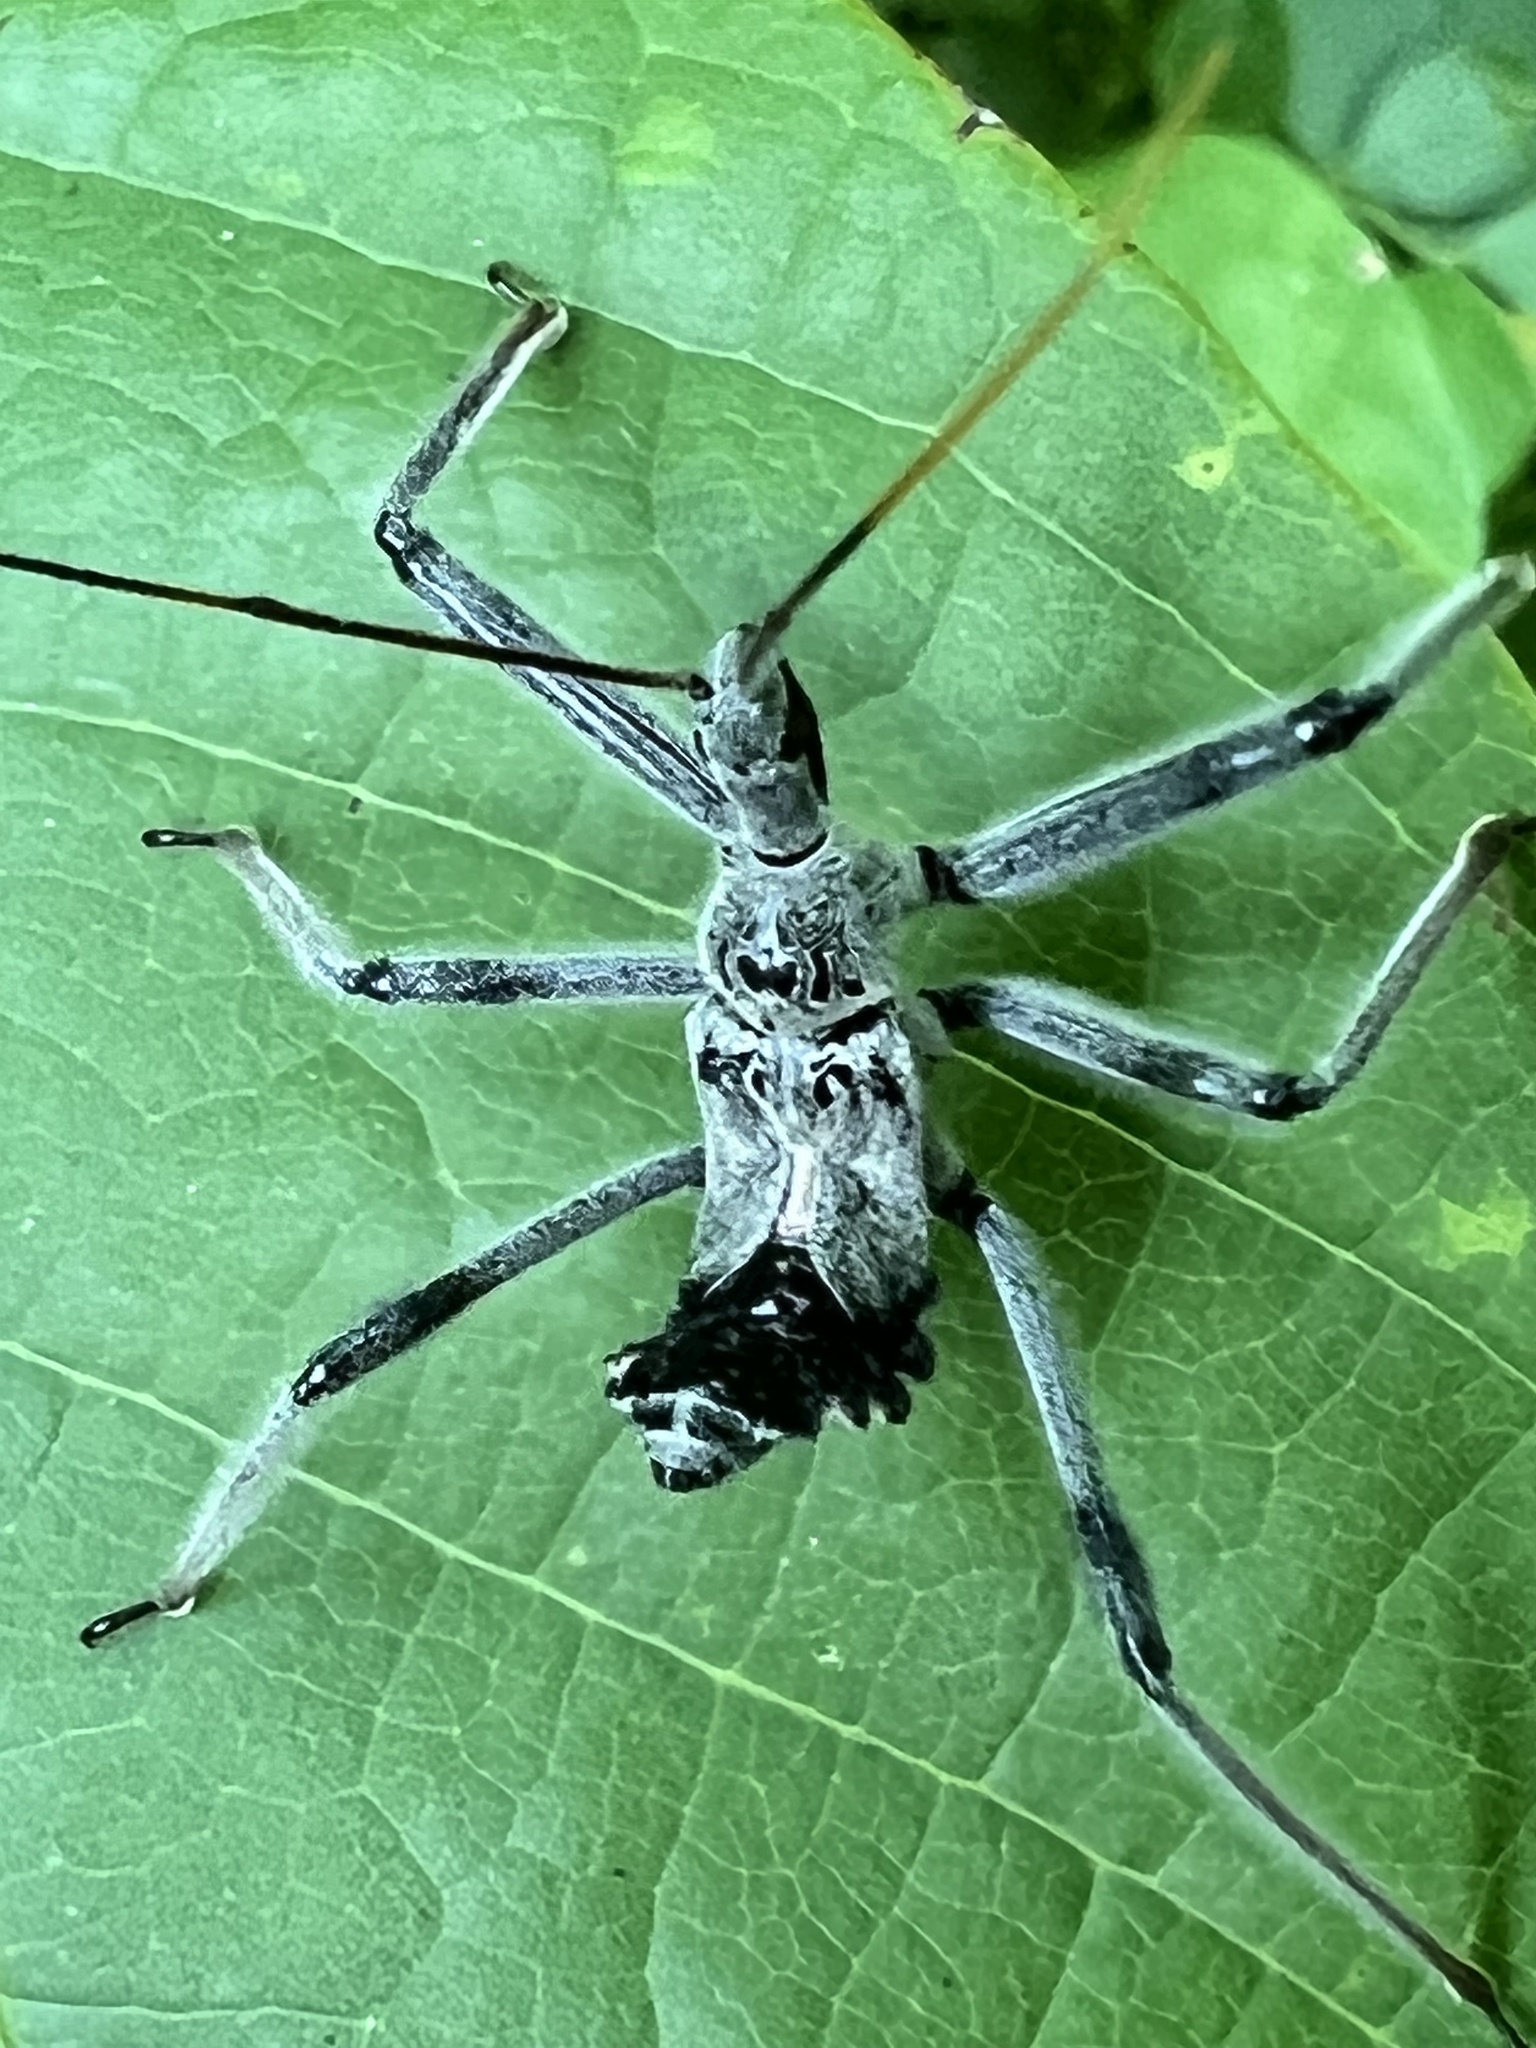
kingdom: Animalia
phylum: Arthropoda
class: Insecta
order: Hemiptera
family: Reduviidae
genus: Arilus
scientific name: Arilus cristatus
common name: North american wheel bug
